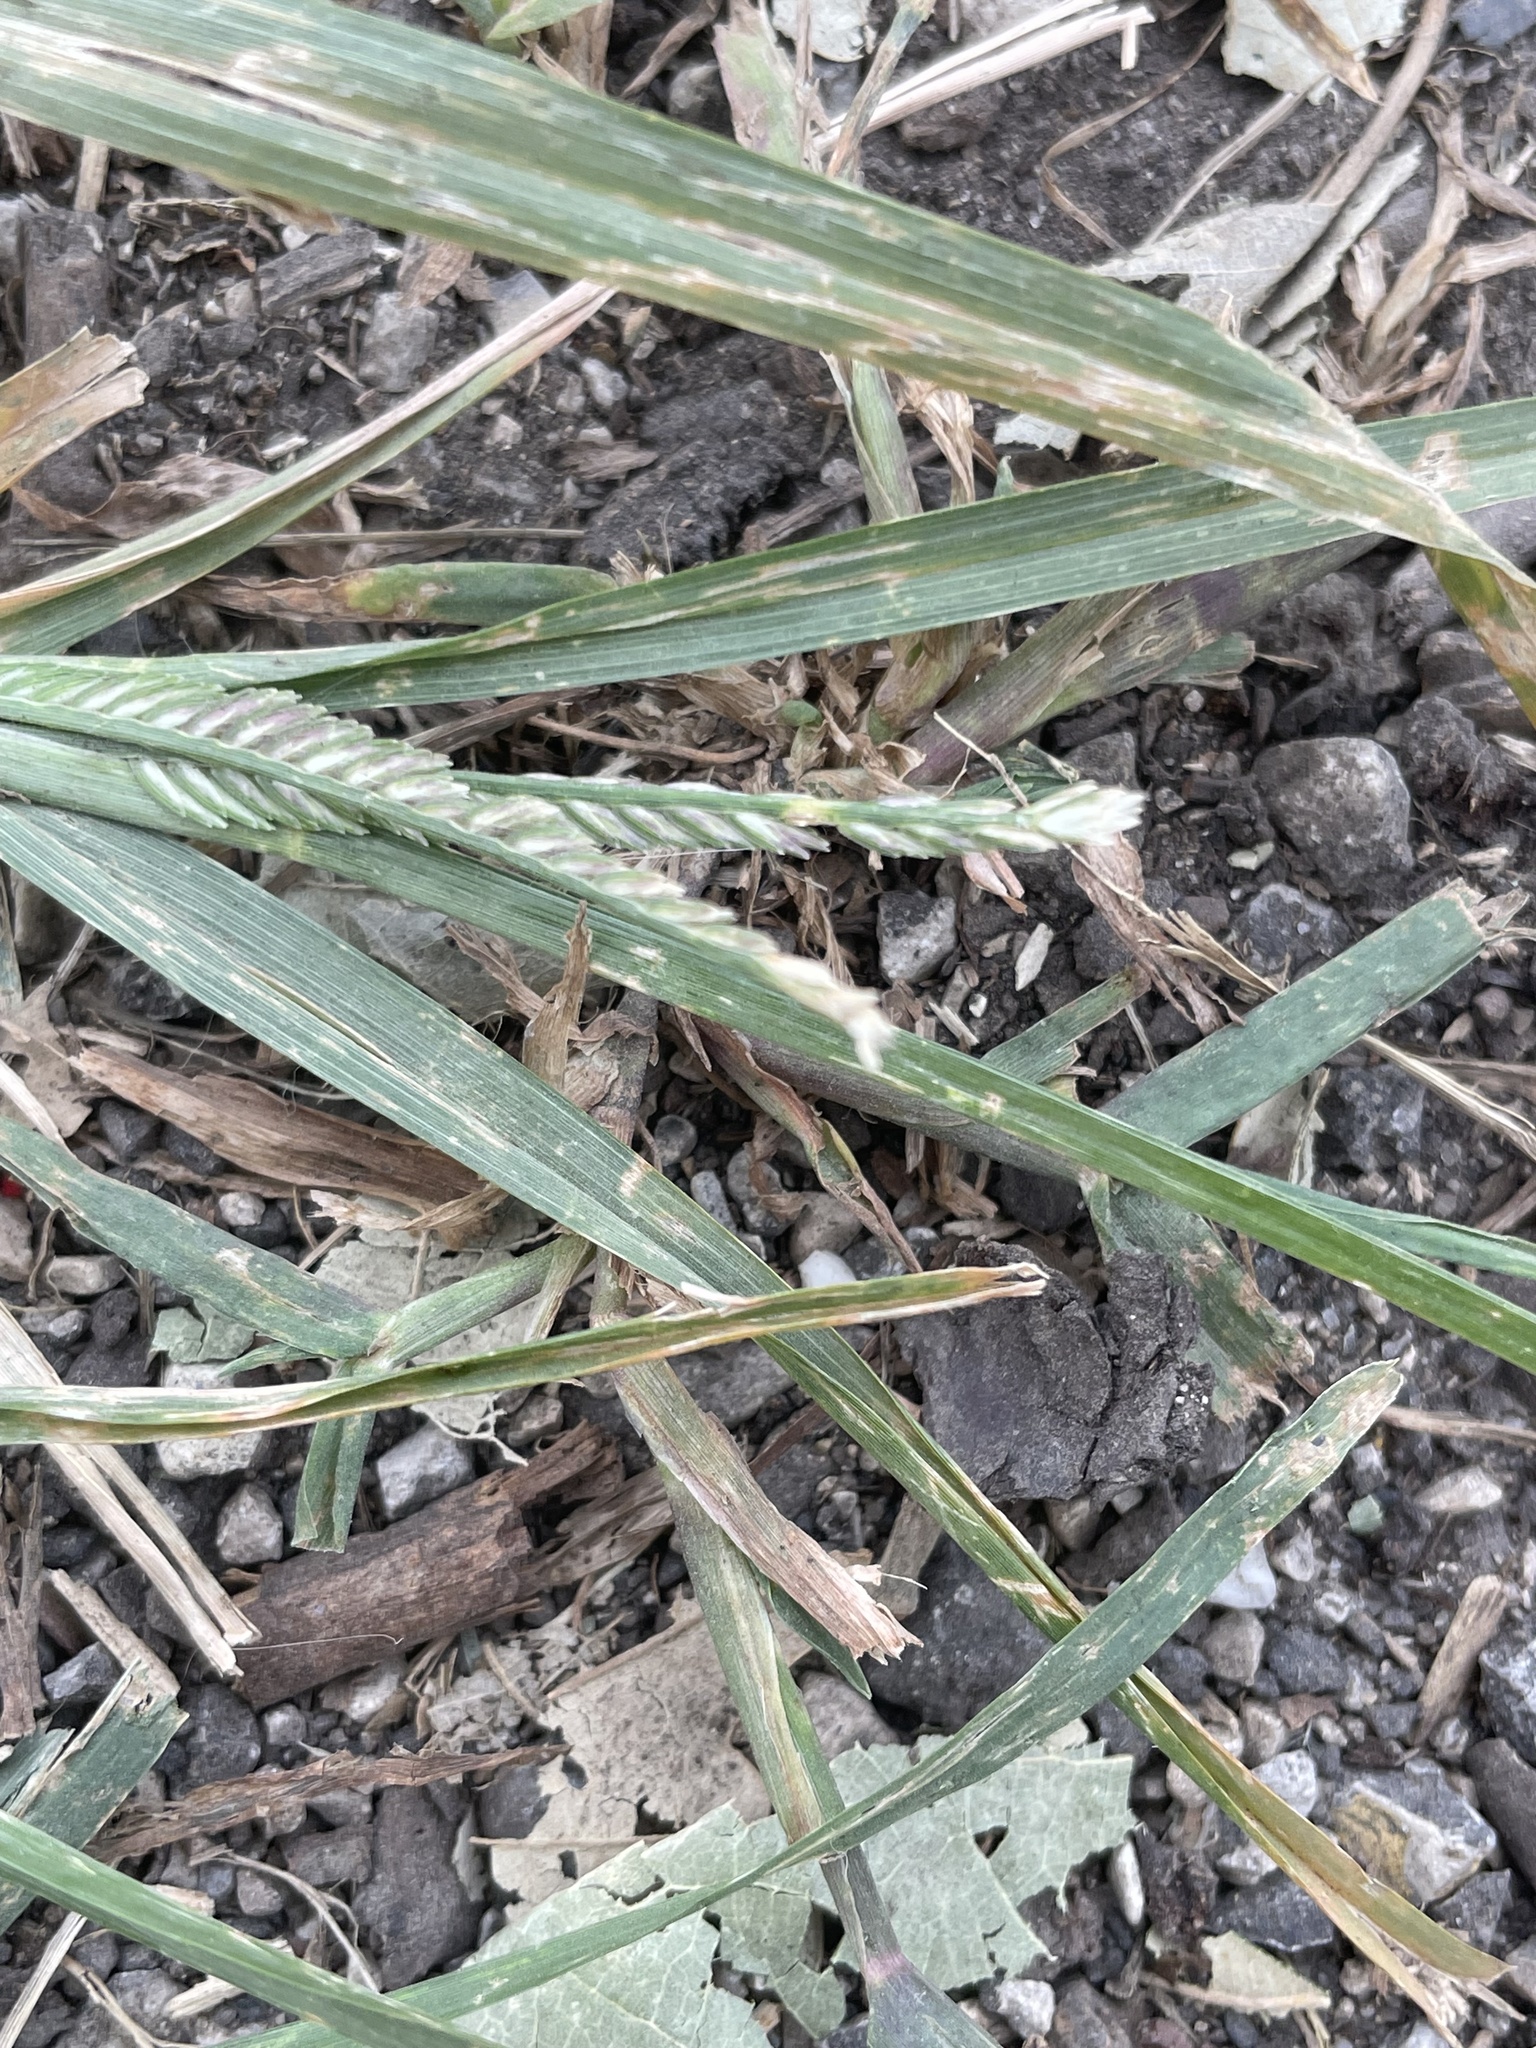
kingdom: Plantae
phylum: Tracheophyta
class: Liliopsida
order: Poales
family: Poaceae
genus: Eleusine
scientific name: Eleusine indica
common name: Yard-grass
